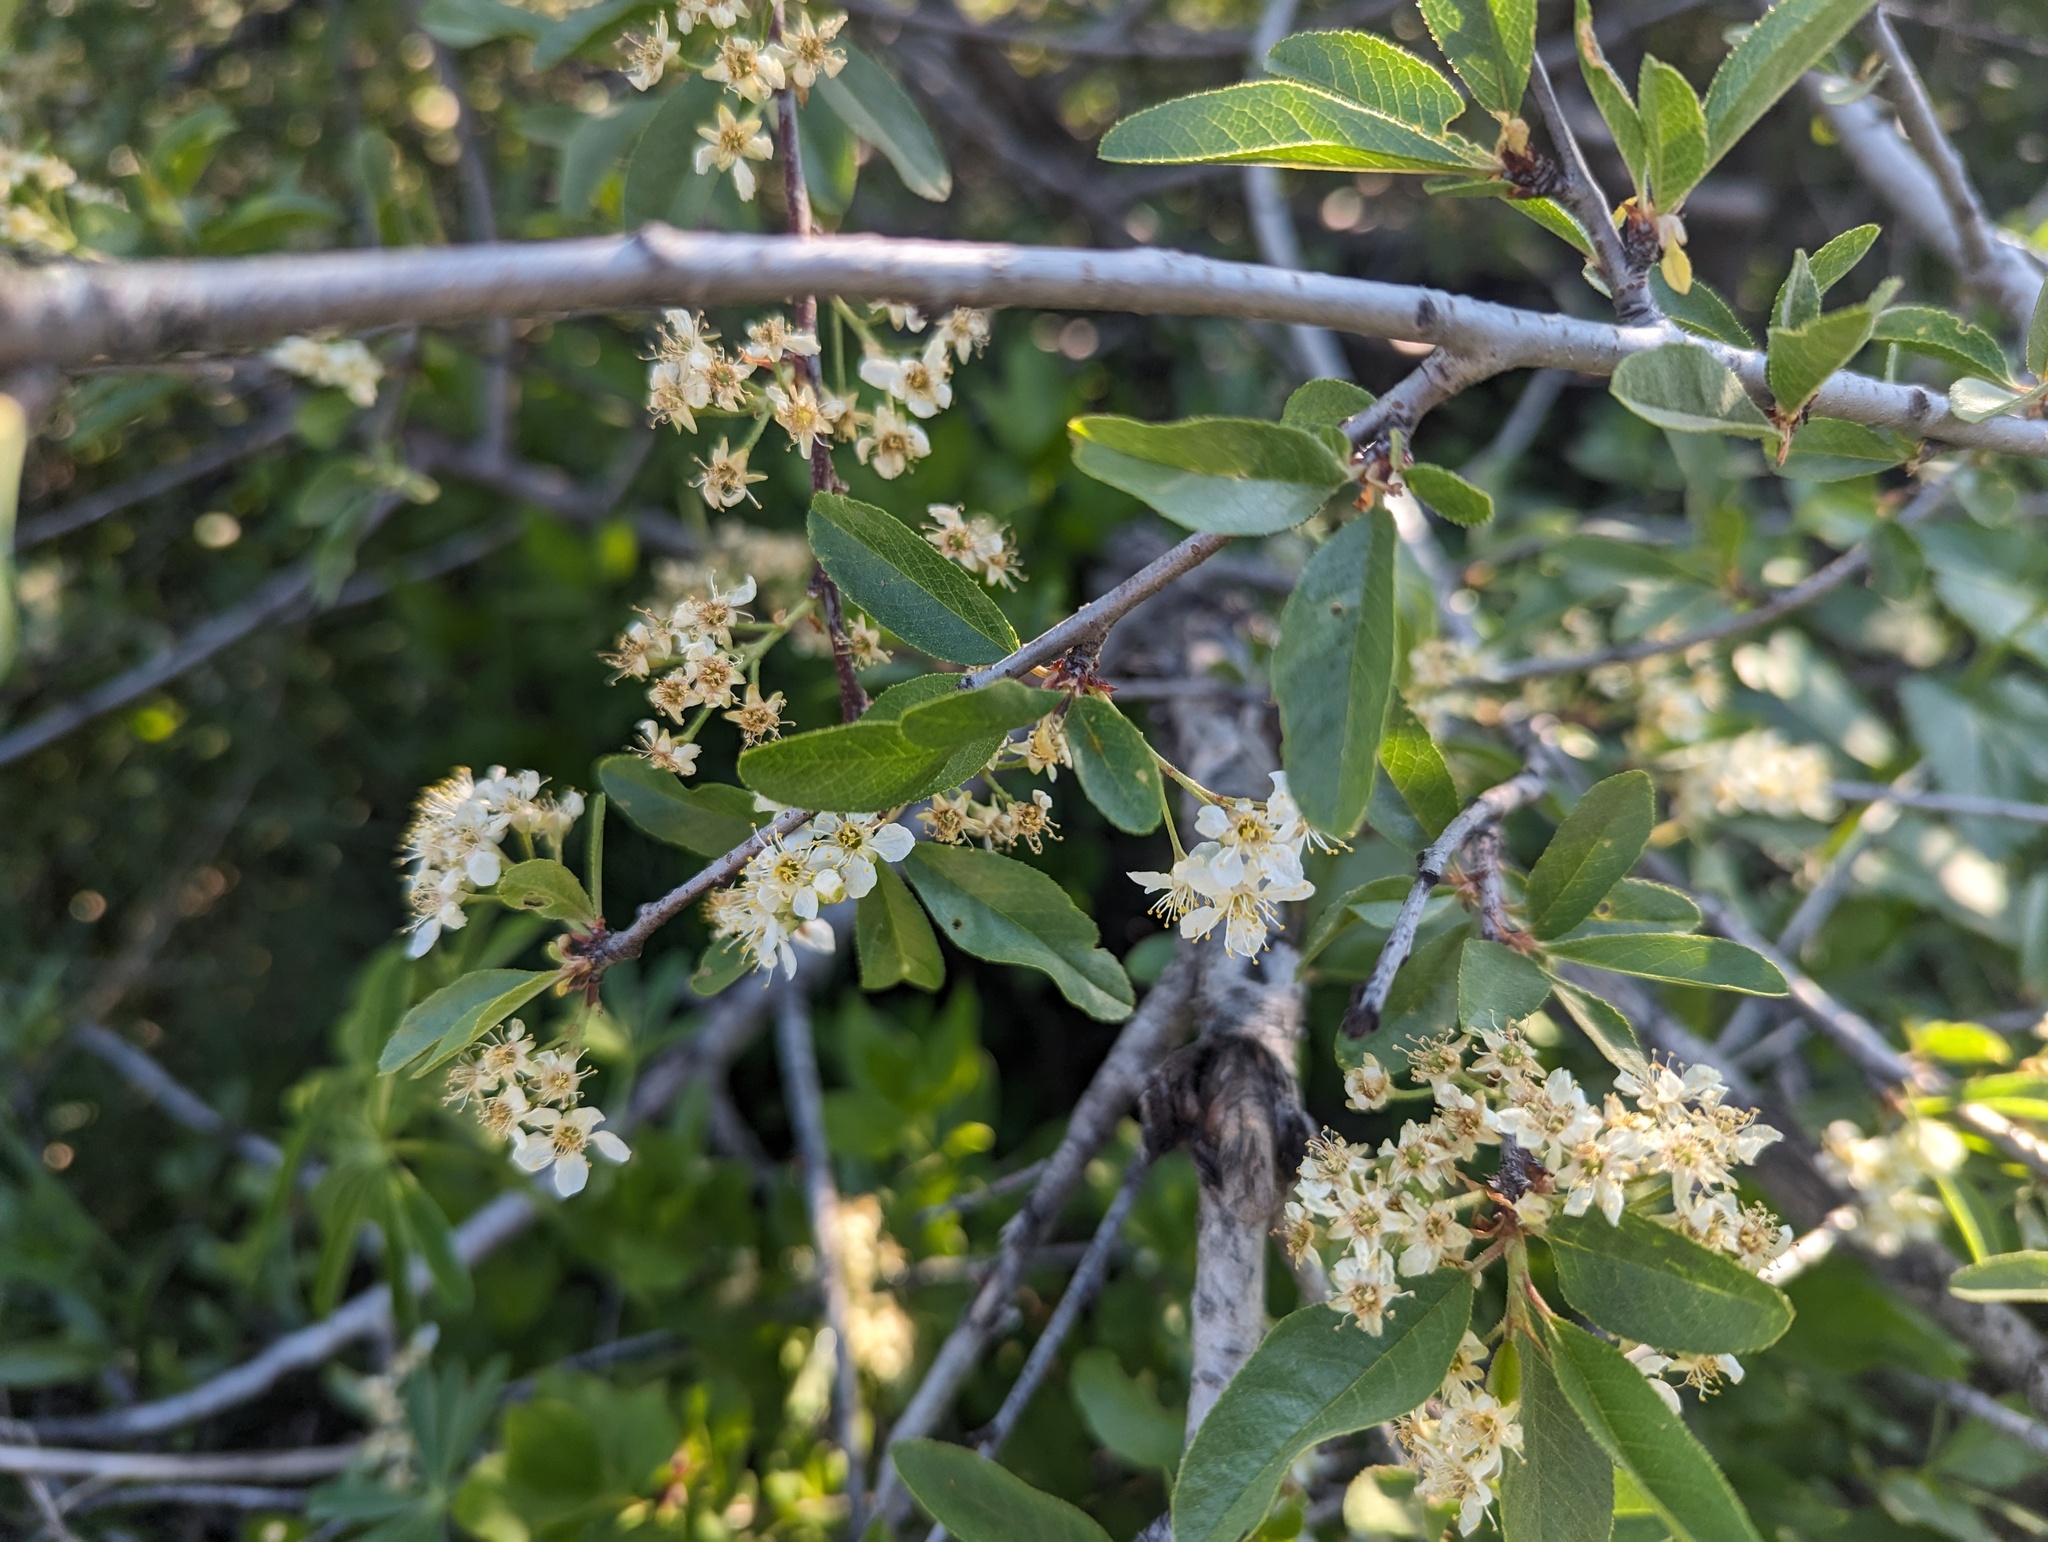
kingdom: Plantae
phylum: Tracheophyta
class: Magnoliopsida
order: Rosales
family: Rosaceae
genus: Prunus
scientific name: Prunus emarginata
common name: Bitter cherry
